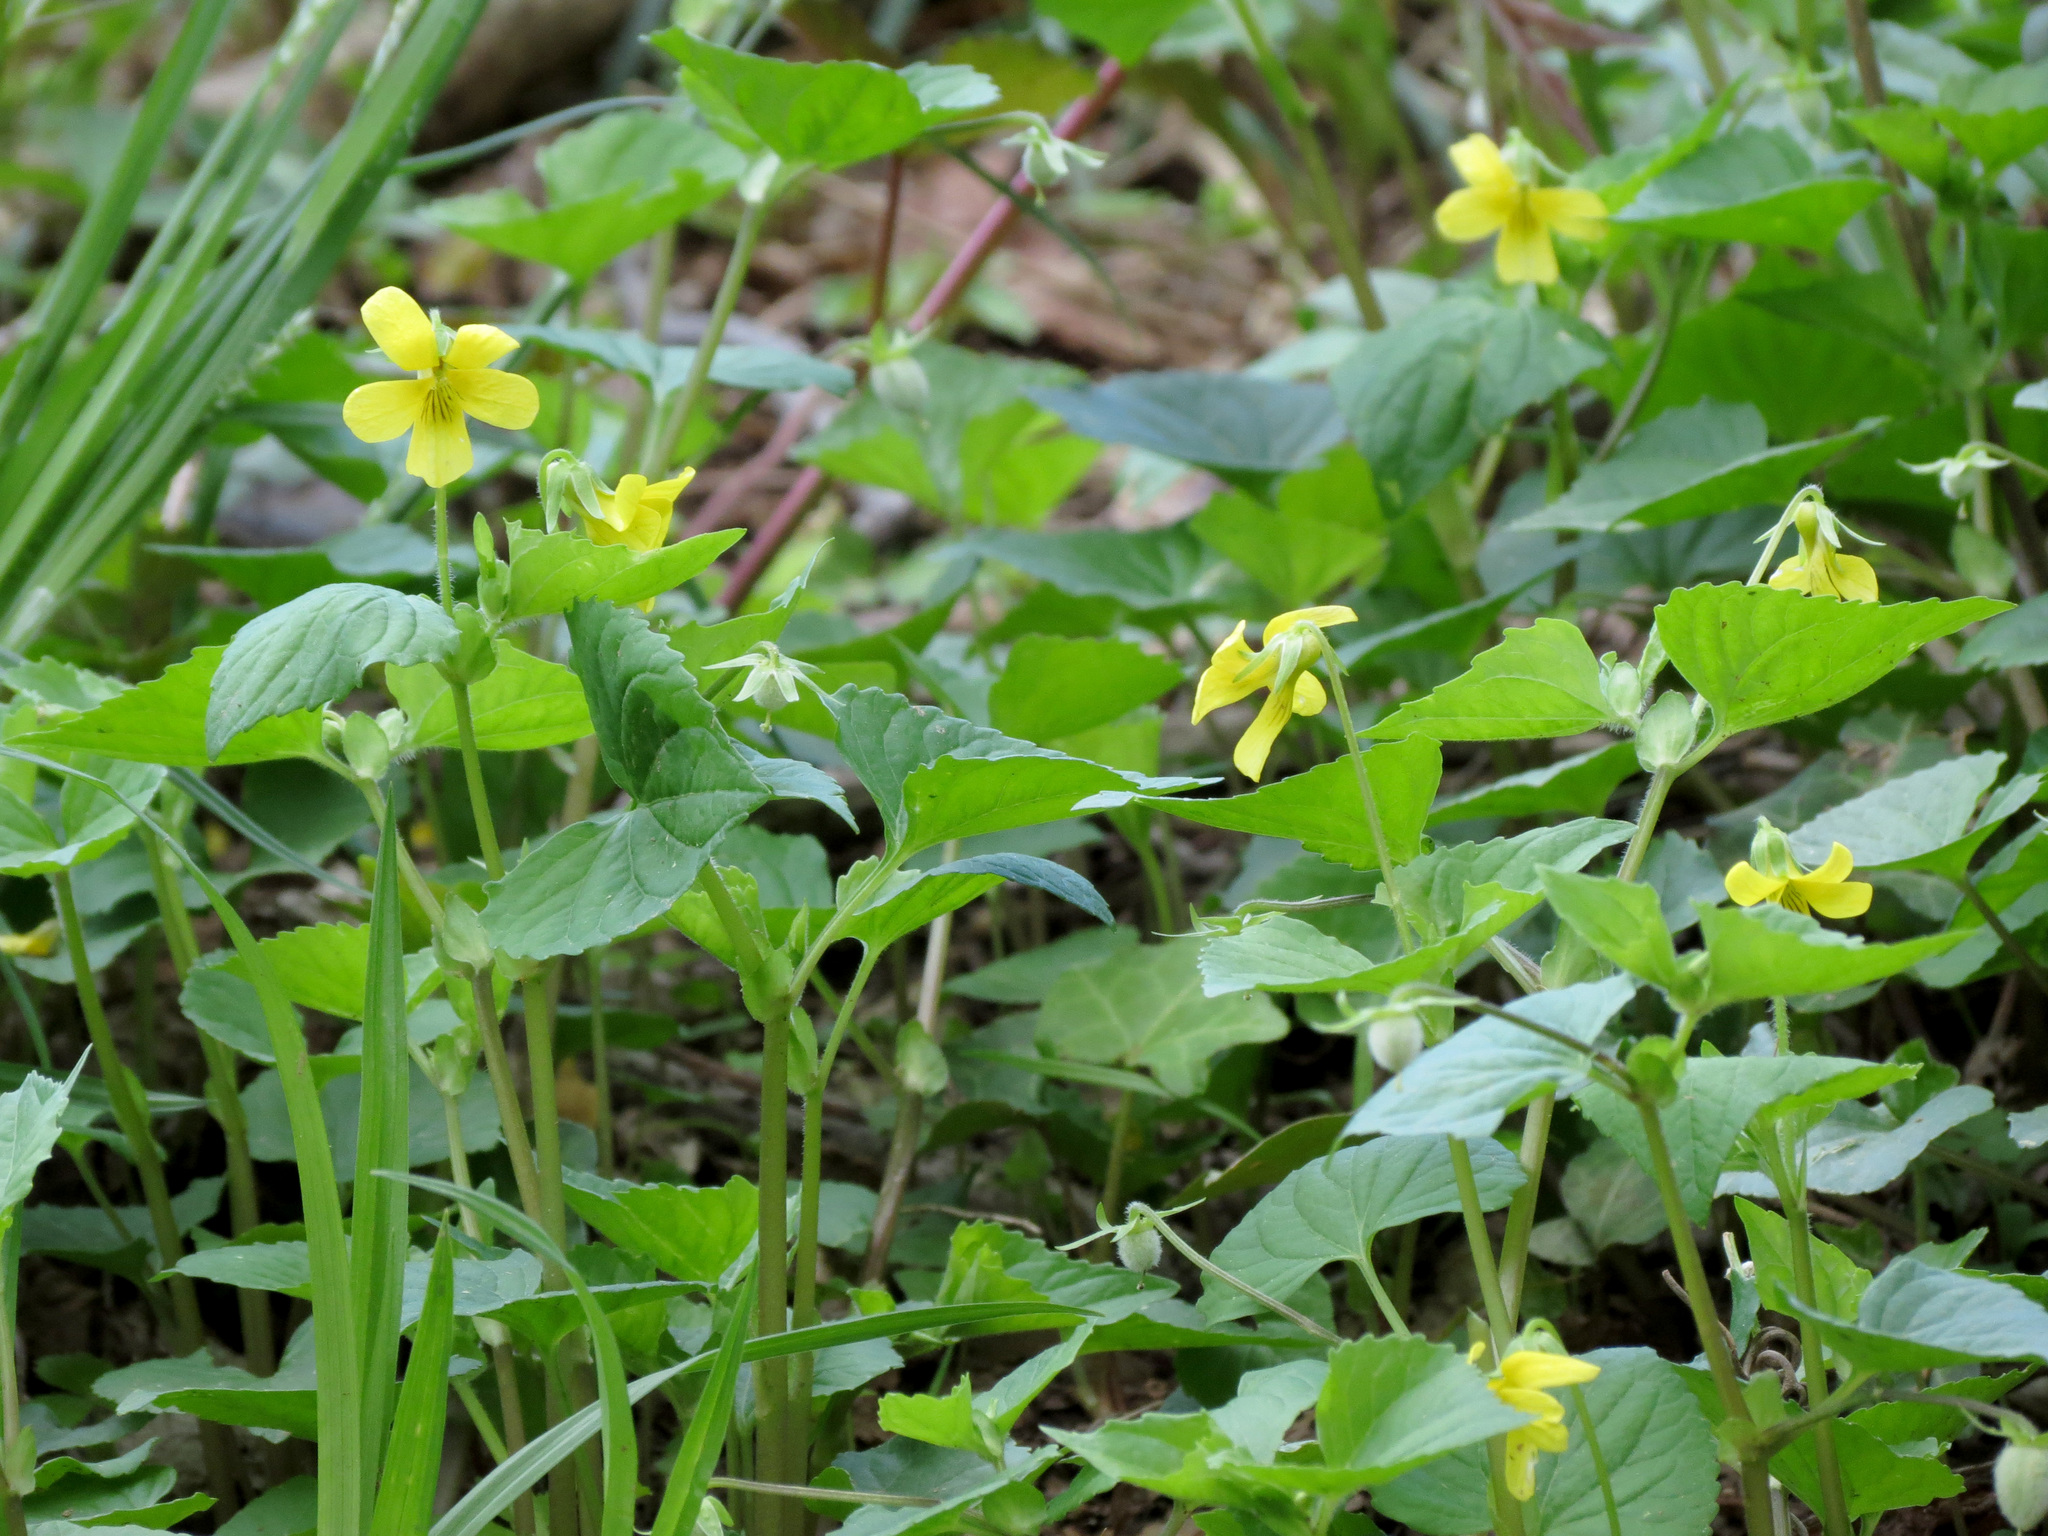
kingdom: Plantae
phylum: Tracheophyta
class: Magnoliopsida
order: Malpighiales
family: Violaceae
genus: Viola
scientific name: Viola eriocarpa
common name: Smooth yellow violet
